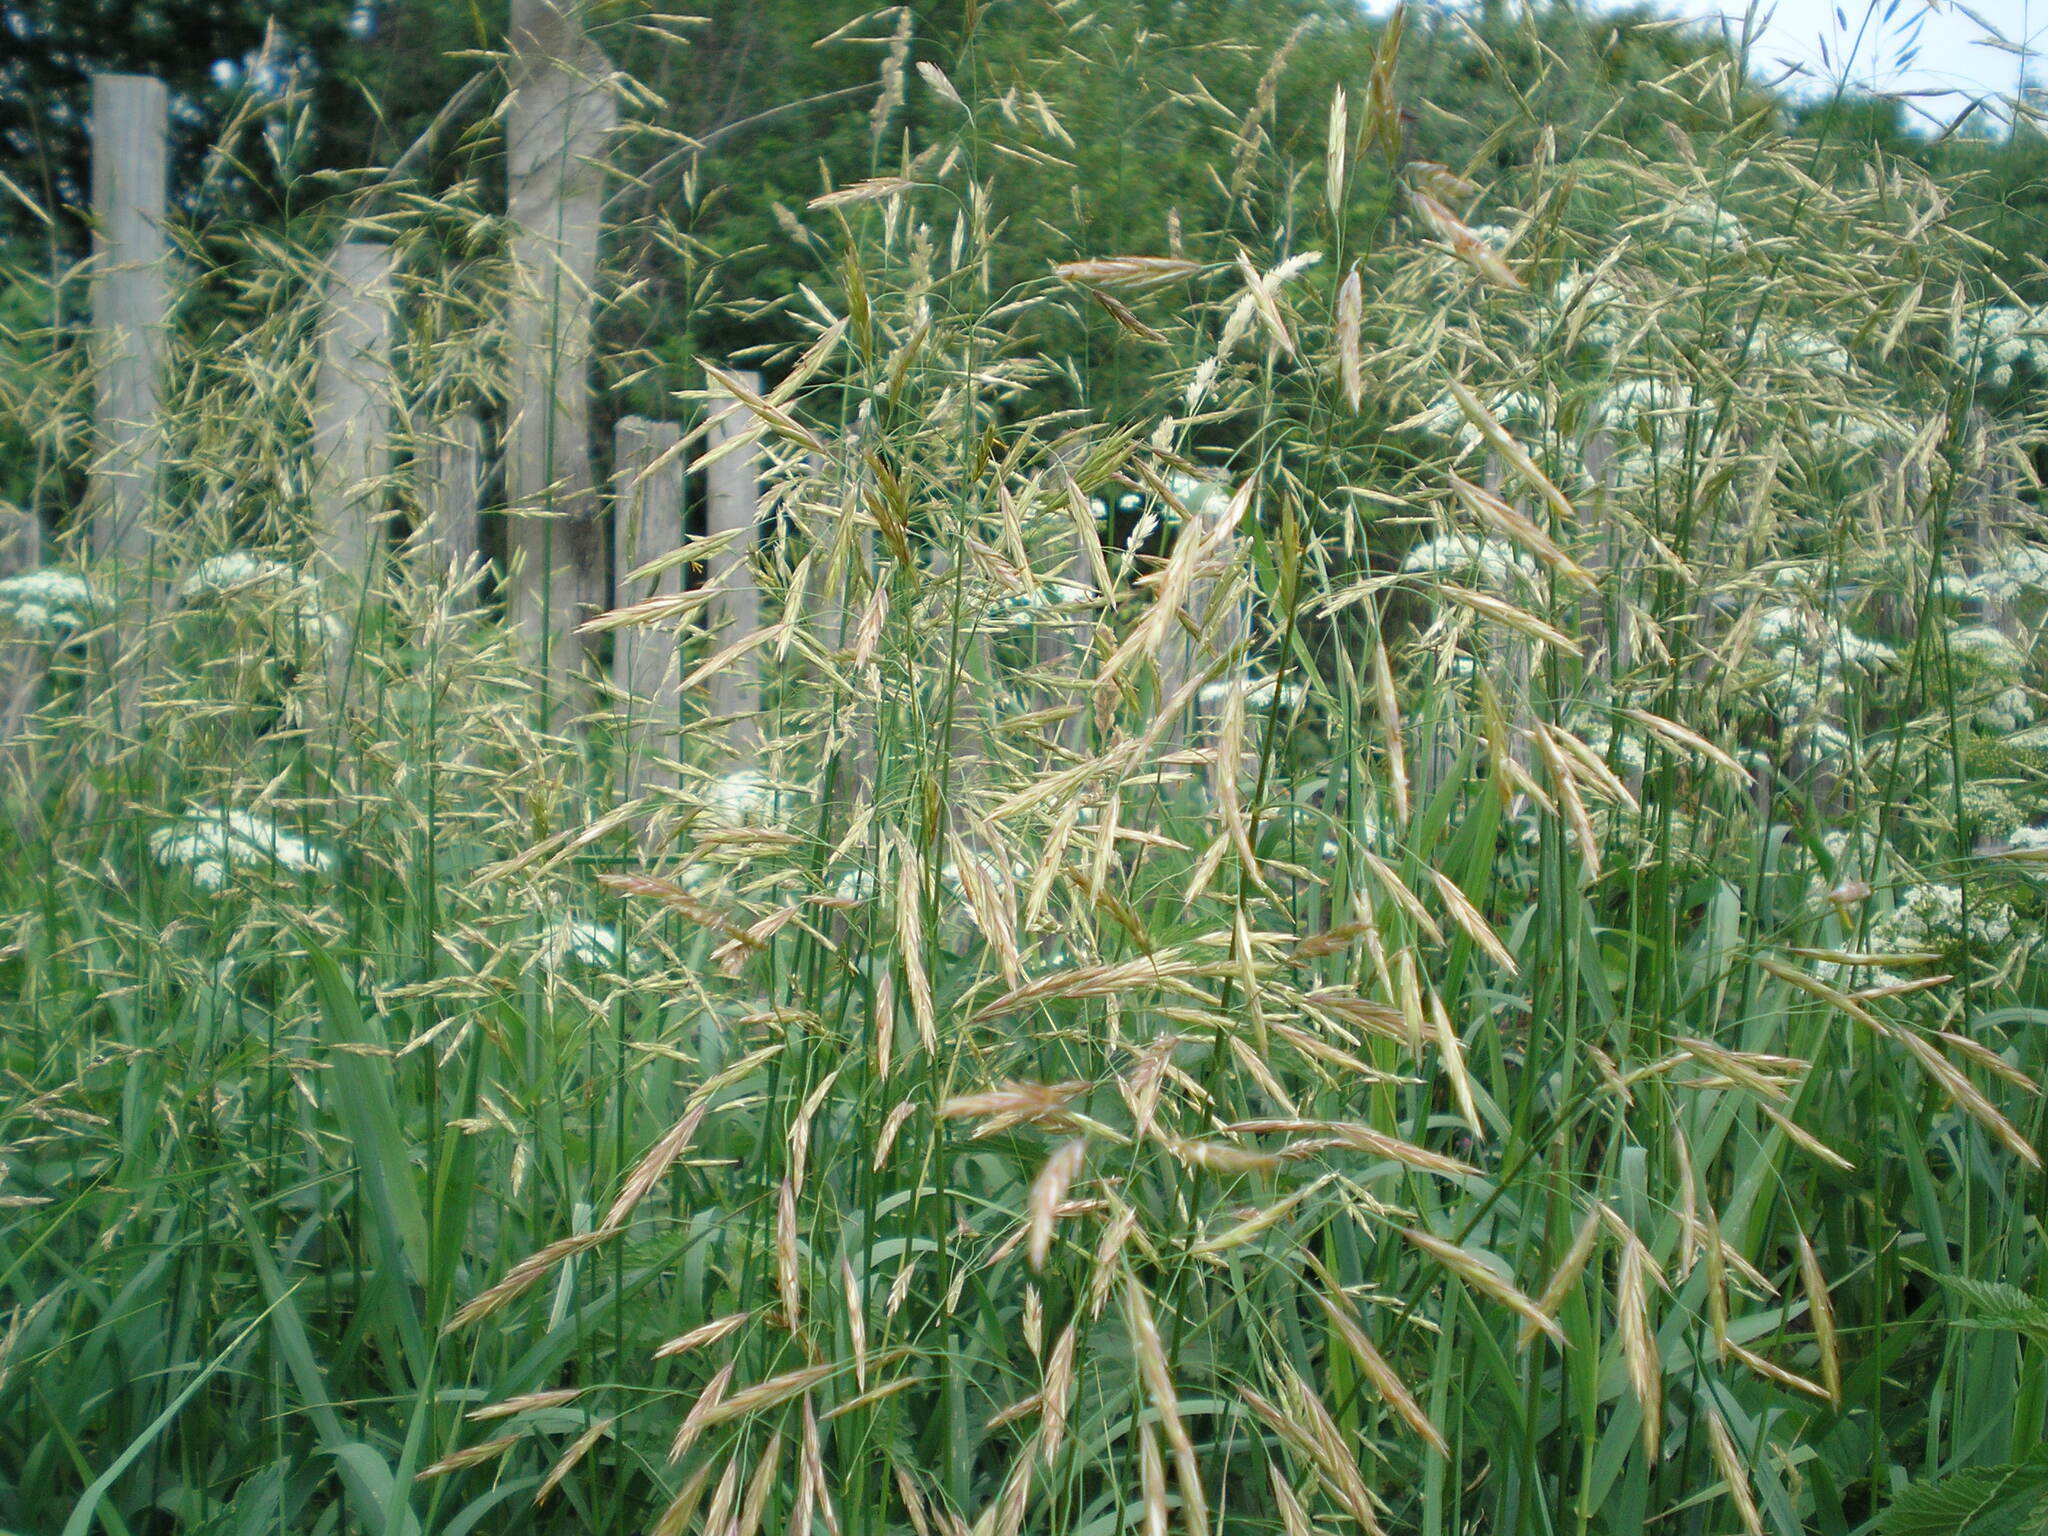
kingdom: Plantae
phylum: Tracheophyta
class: Liliopsida
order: Poales
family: Poaceae
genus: Bromus
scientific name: Bromus inermis
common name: Smooth brome
